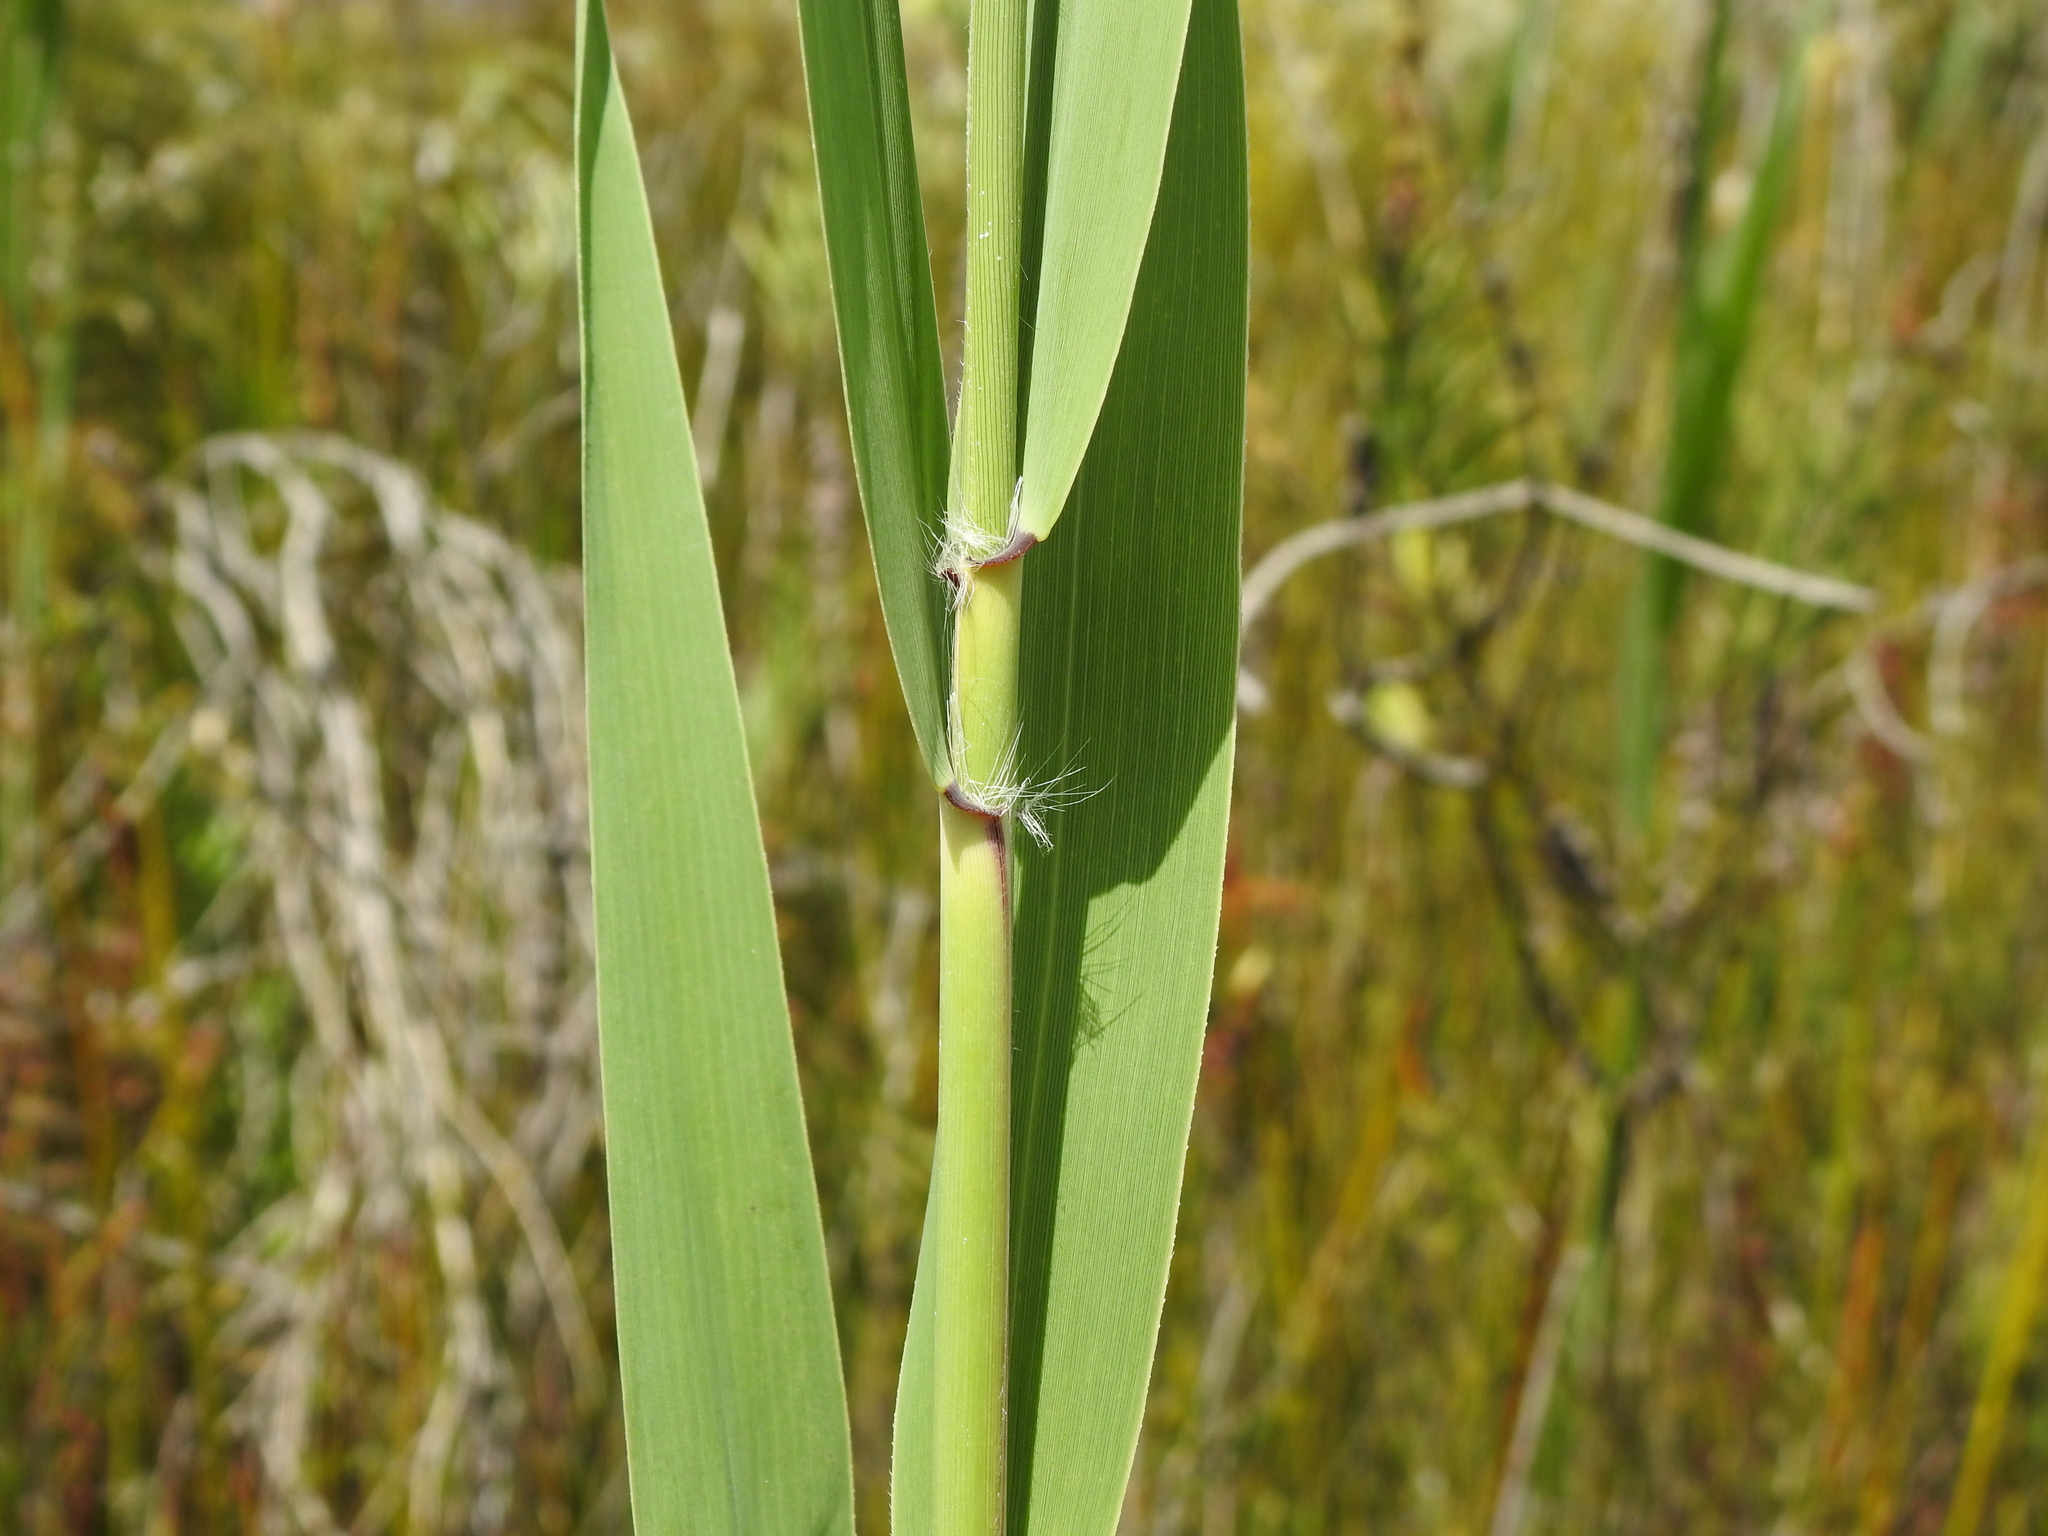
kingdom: Plantae
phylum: Tracheophyta
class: Liliopsida
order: Poales
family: Poaceae
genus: Phragmites
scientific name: Phragmites australis
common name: Common reed
